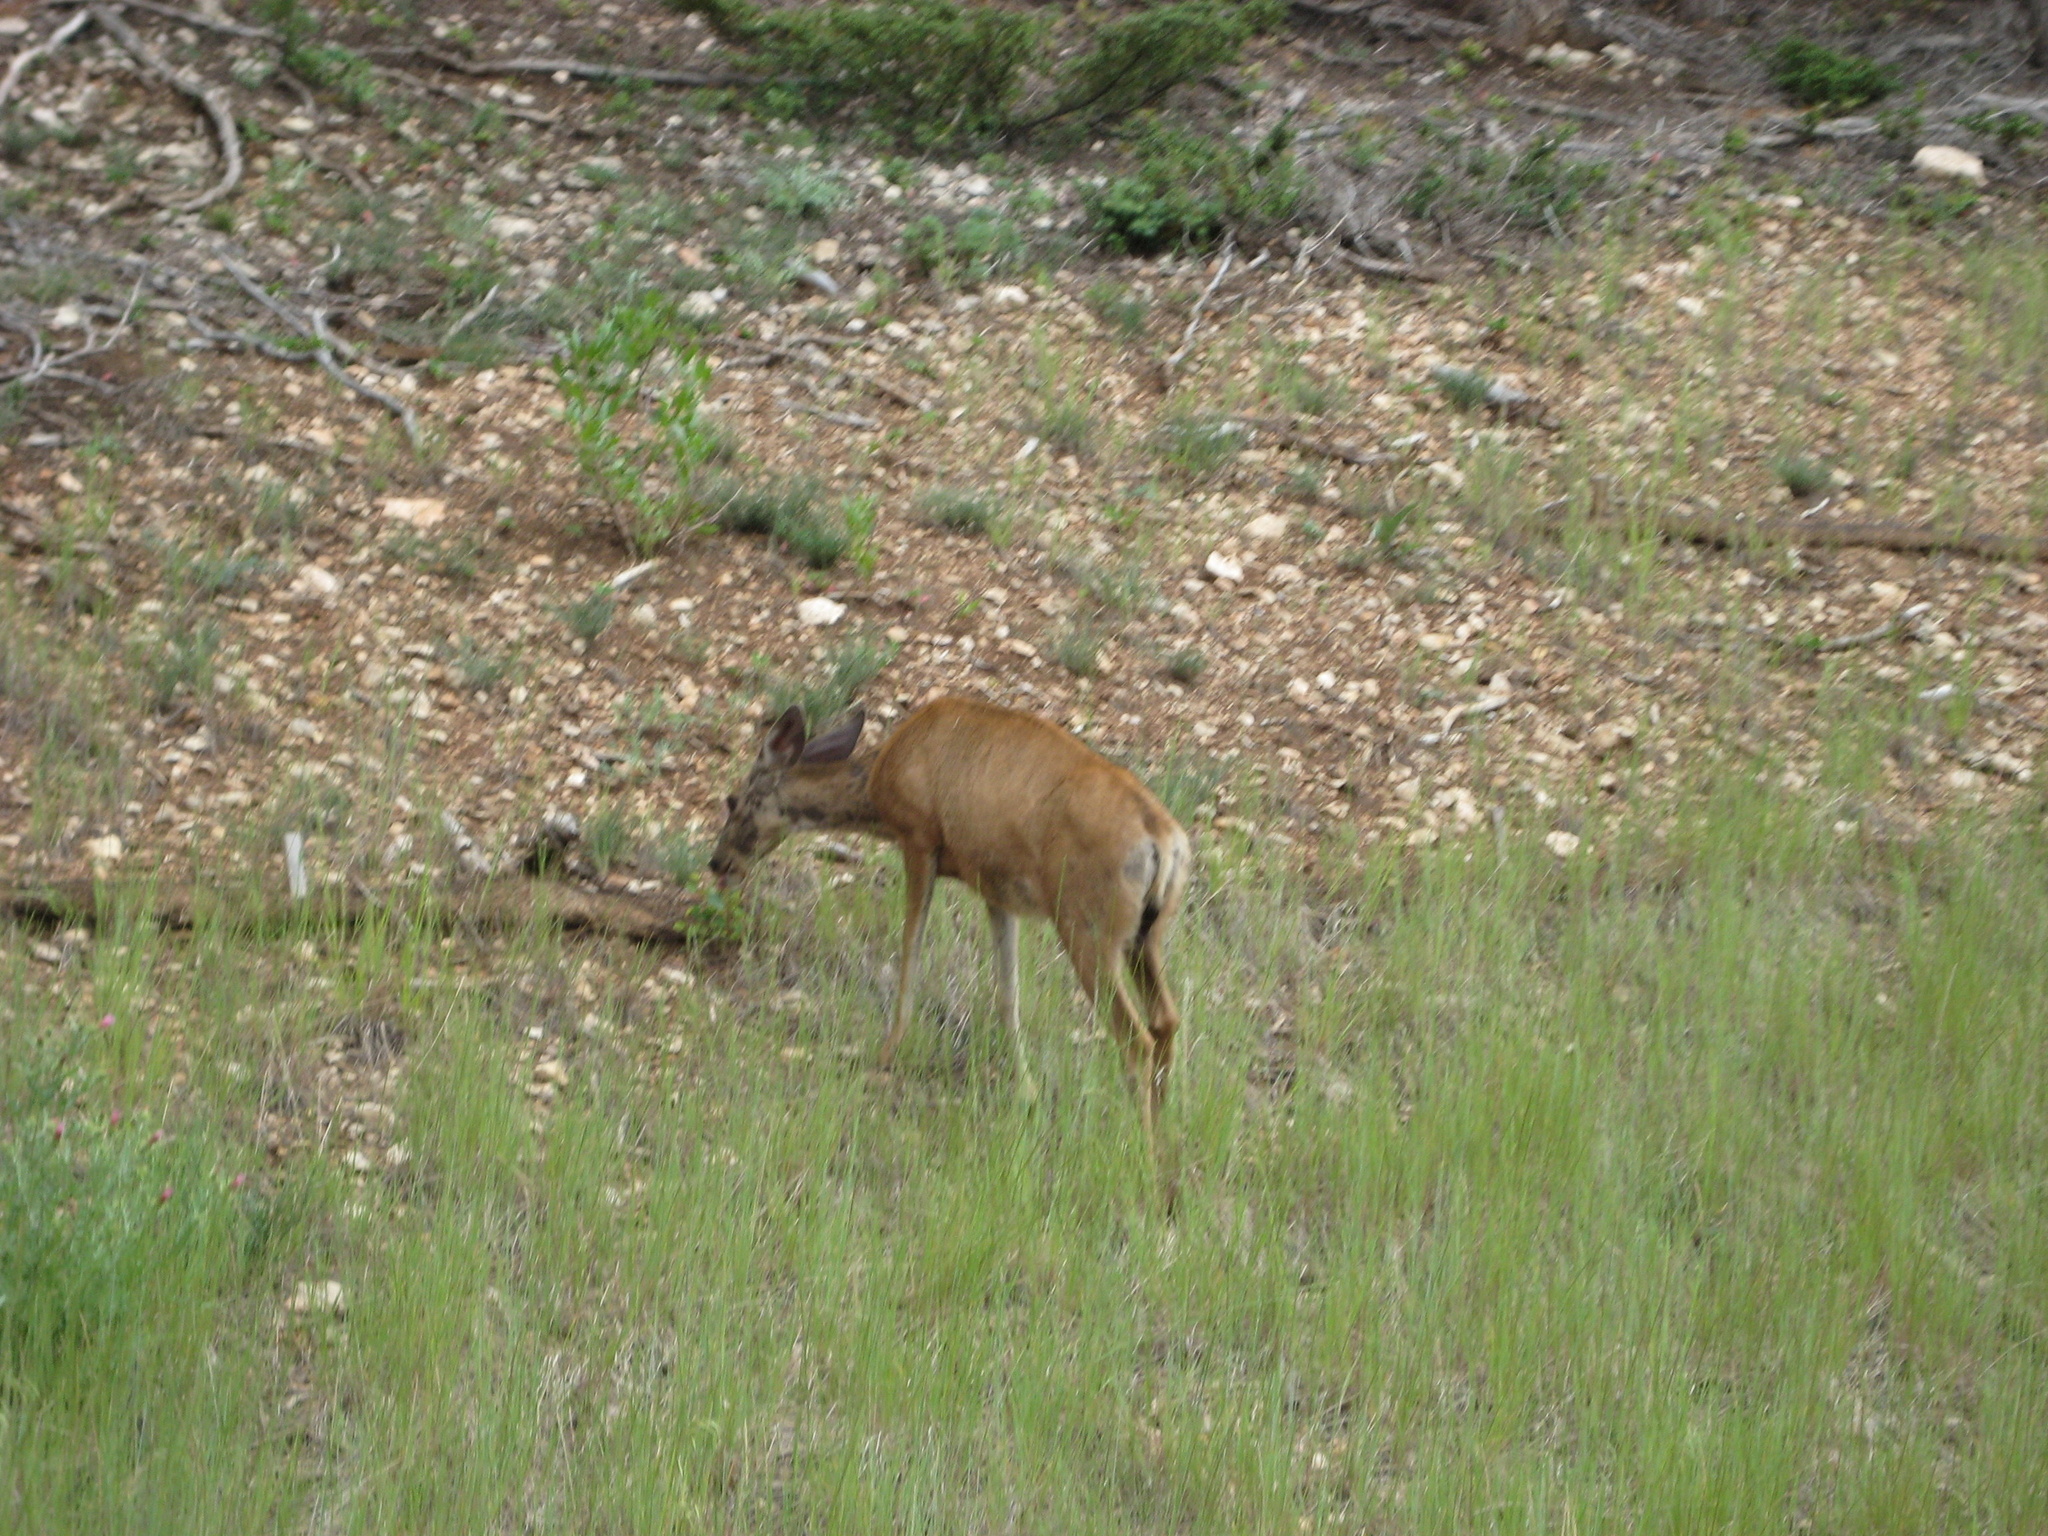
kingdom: Animalia
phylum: Chordata
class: Mammalia
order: Artiodactyla
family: Cervidae
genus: Odocoileus
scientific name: Odocoileus hemionus
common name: Mule deer
